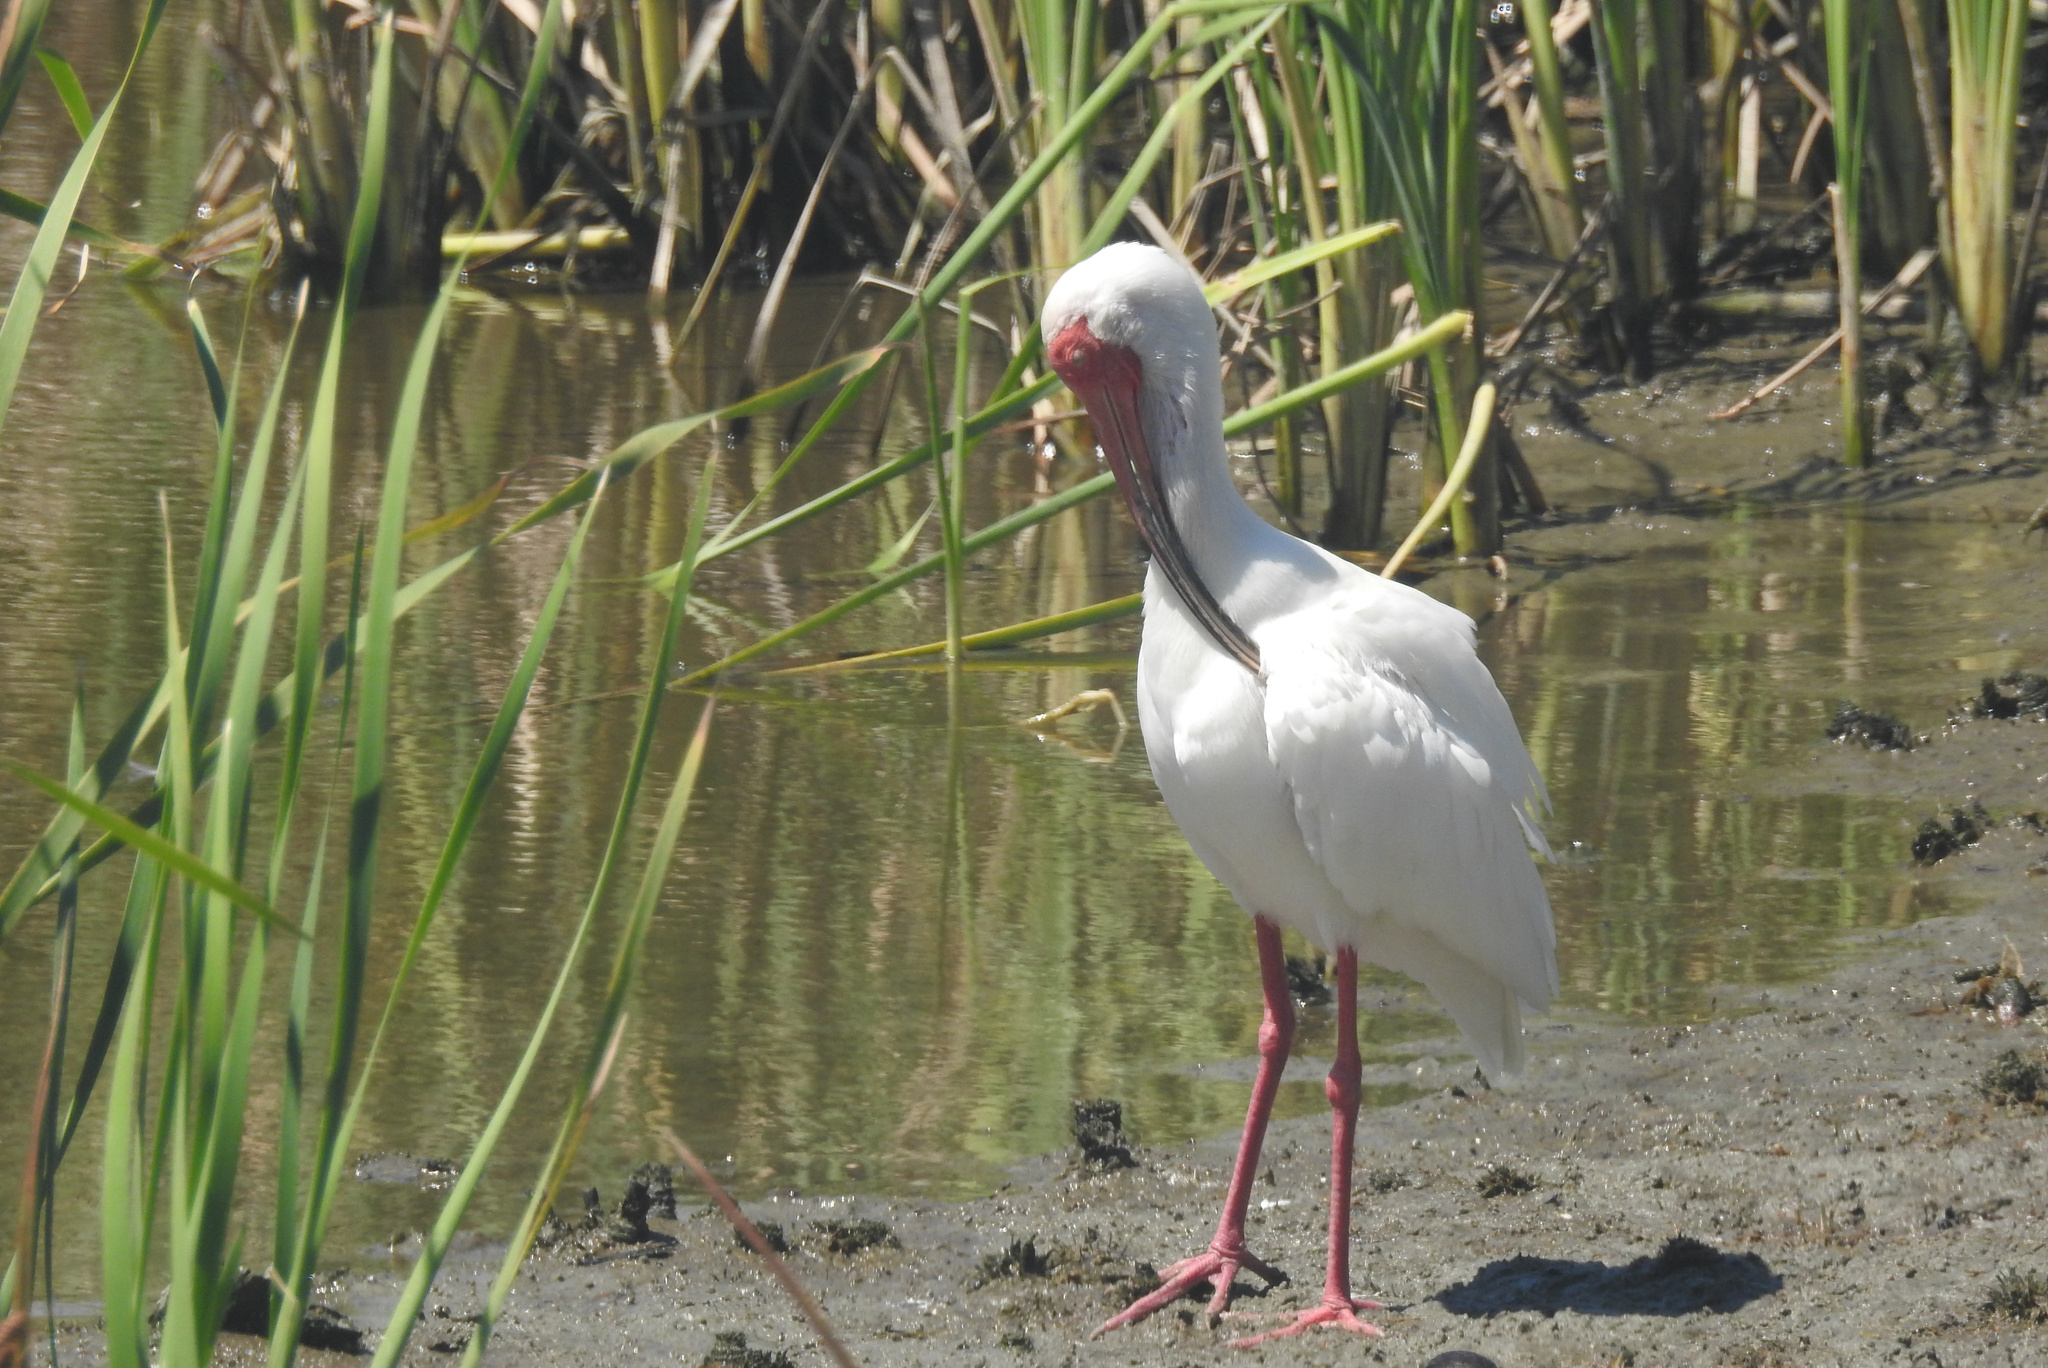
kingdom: Animalia
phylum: Chordata
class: Aves
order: Pelecaniformes
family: Threskiornithidae
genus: Eudocimus
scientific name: Eudocimus albus
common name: White ibis
